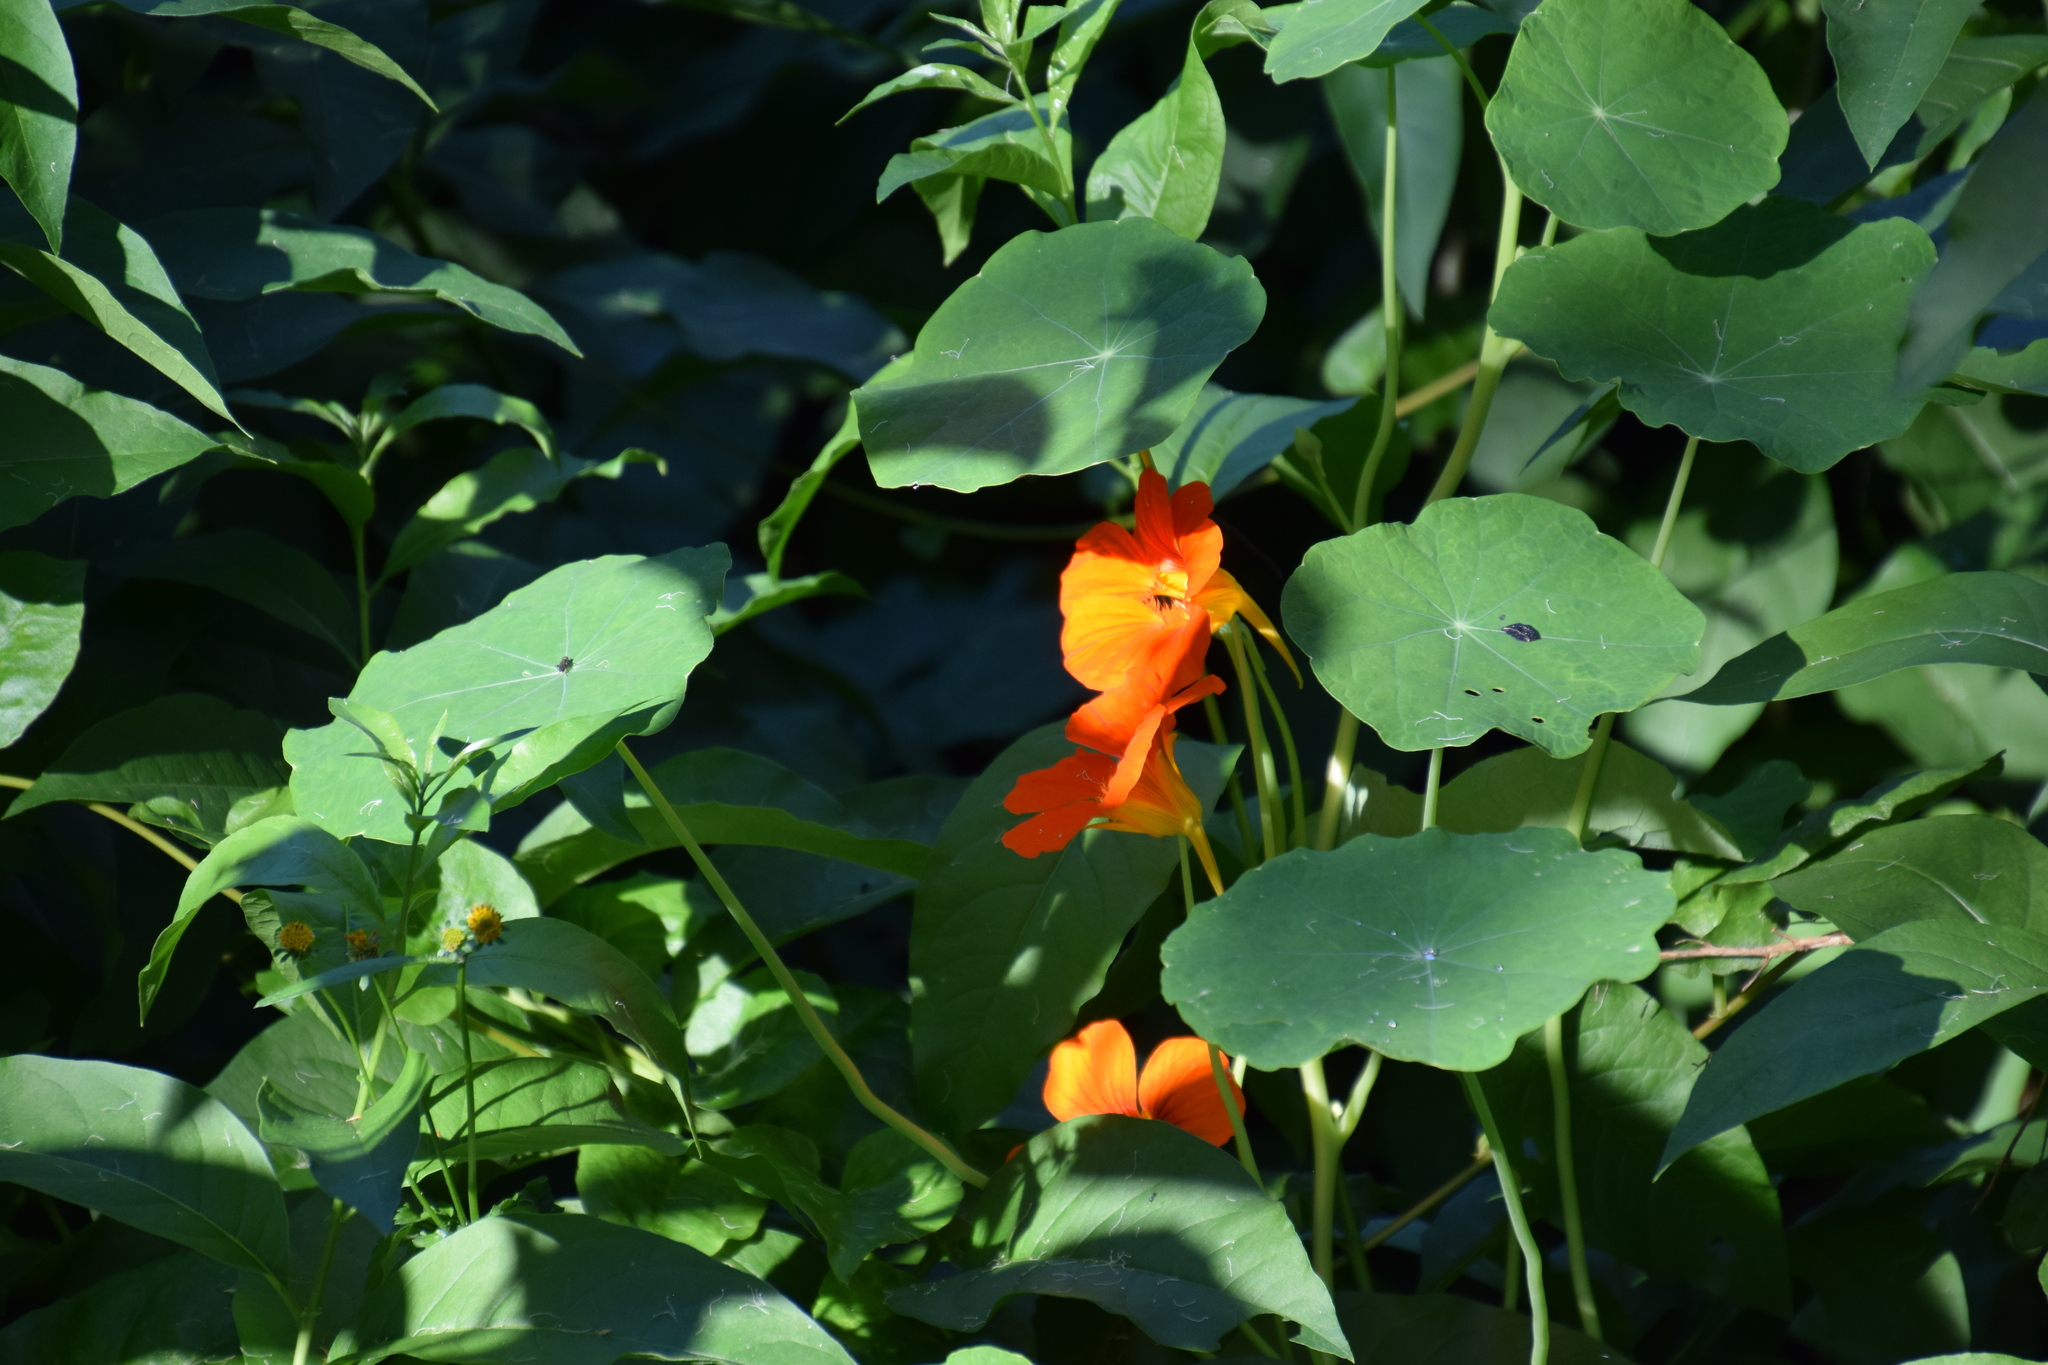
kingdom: Plantae
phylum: Tracheophyta
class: Magnoliopsida
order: Brassicales
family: Tropaeolaceae
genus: Tropaeolum
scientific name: Tropaeolum majus
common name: Nasturtium
